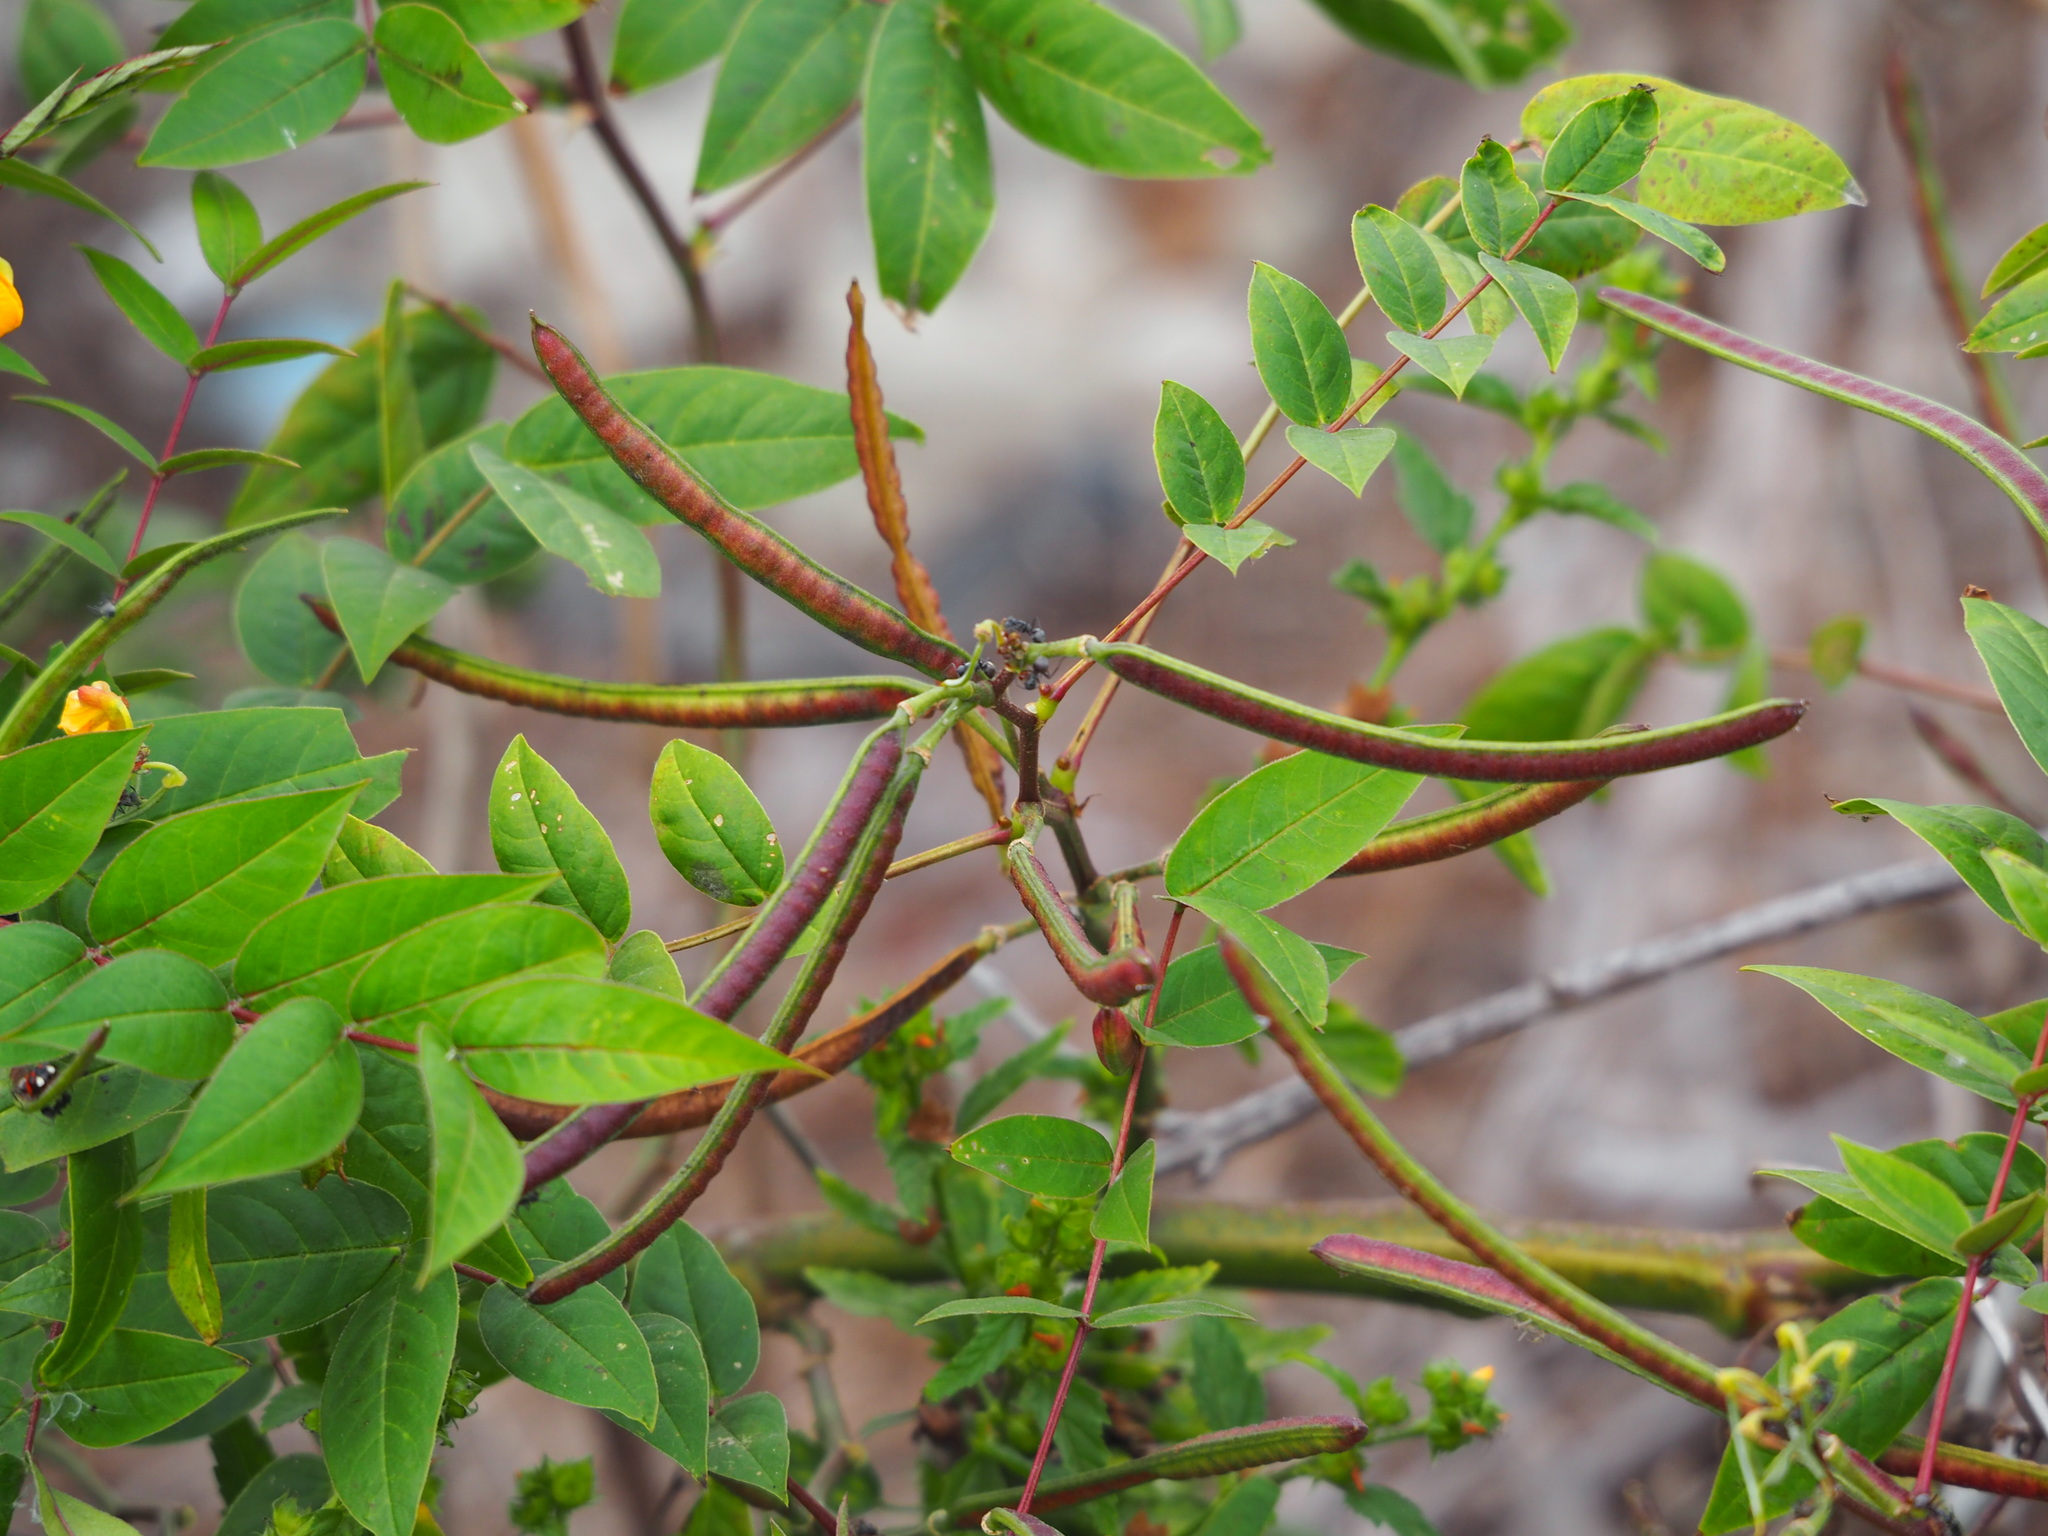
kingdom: Plantae
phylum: Tracheophyta
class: Magnoliopsida
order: Fabales
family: Fabaceae
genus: Senna
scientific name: Senna occidentalis
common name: Septicweed
